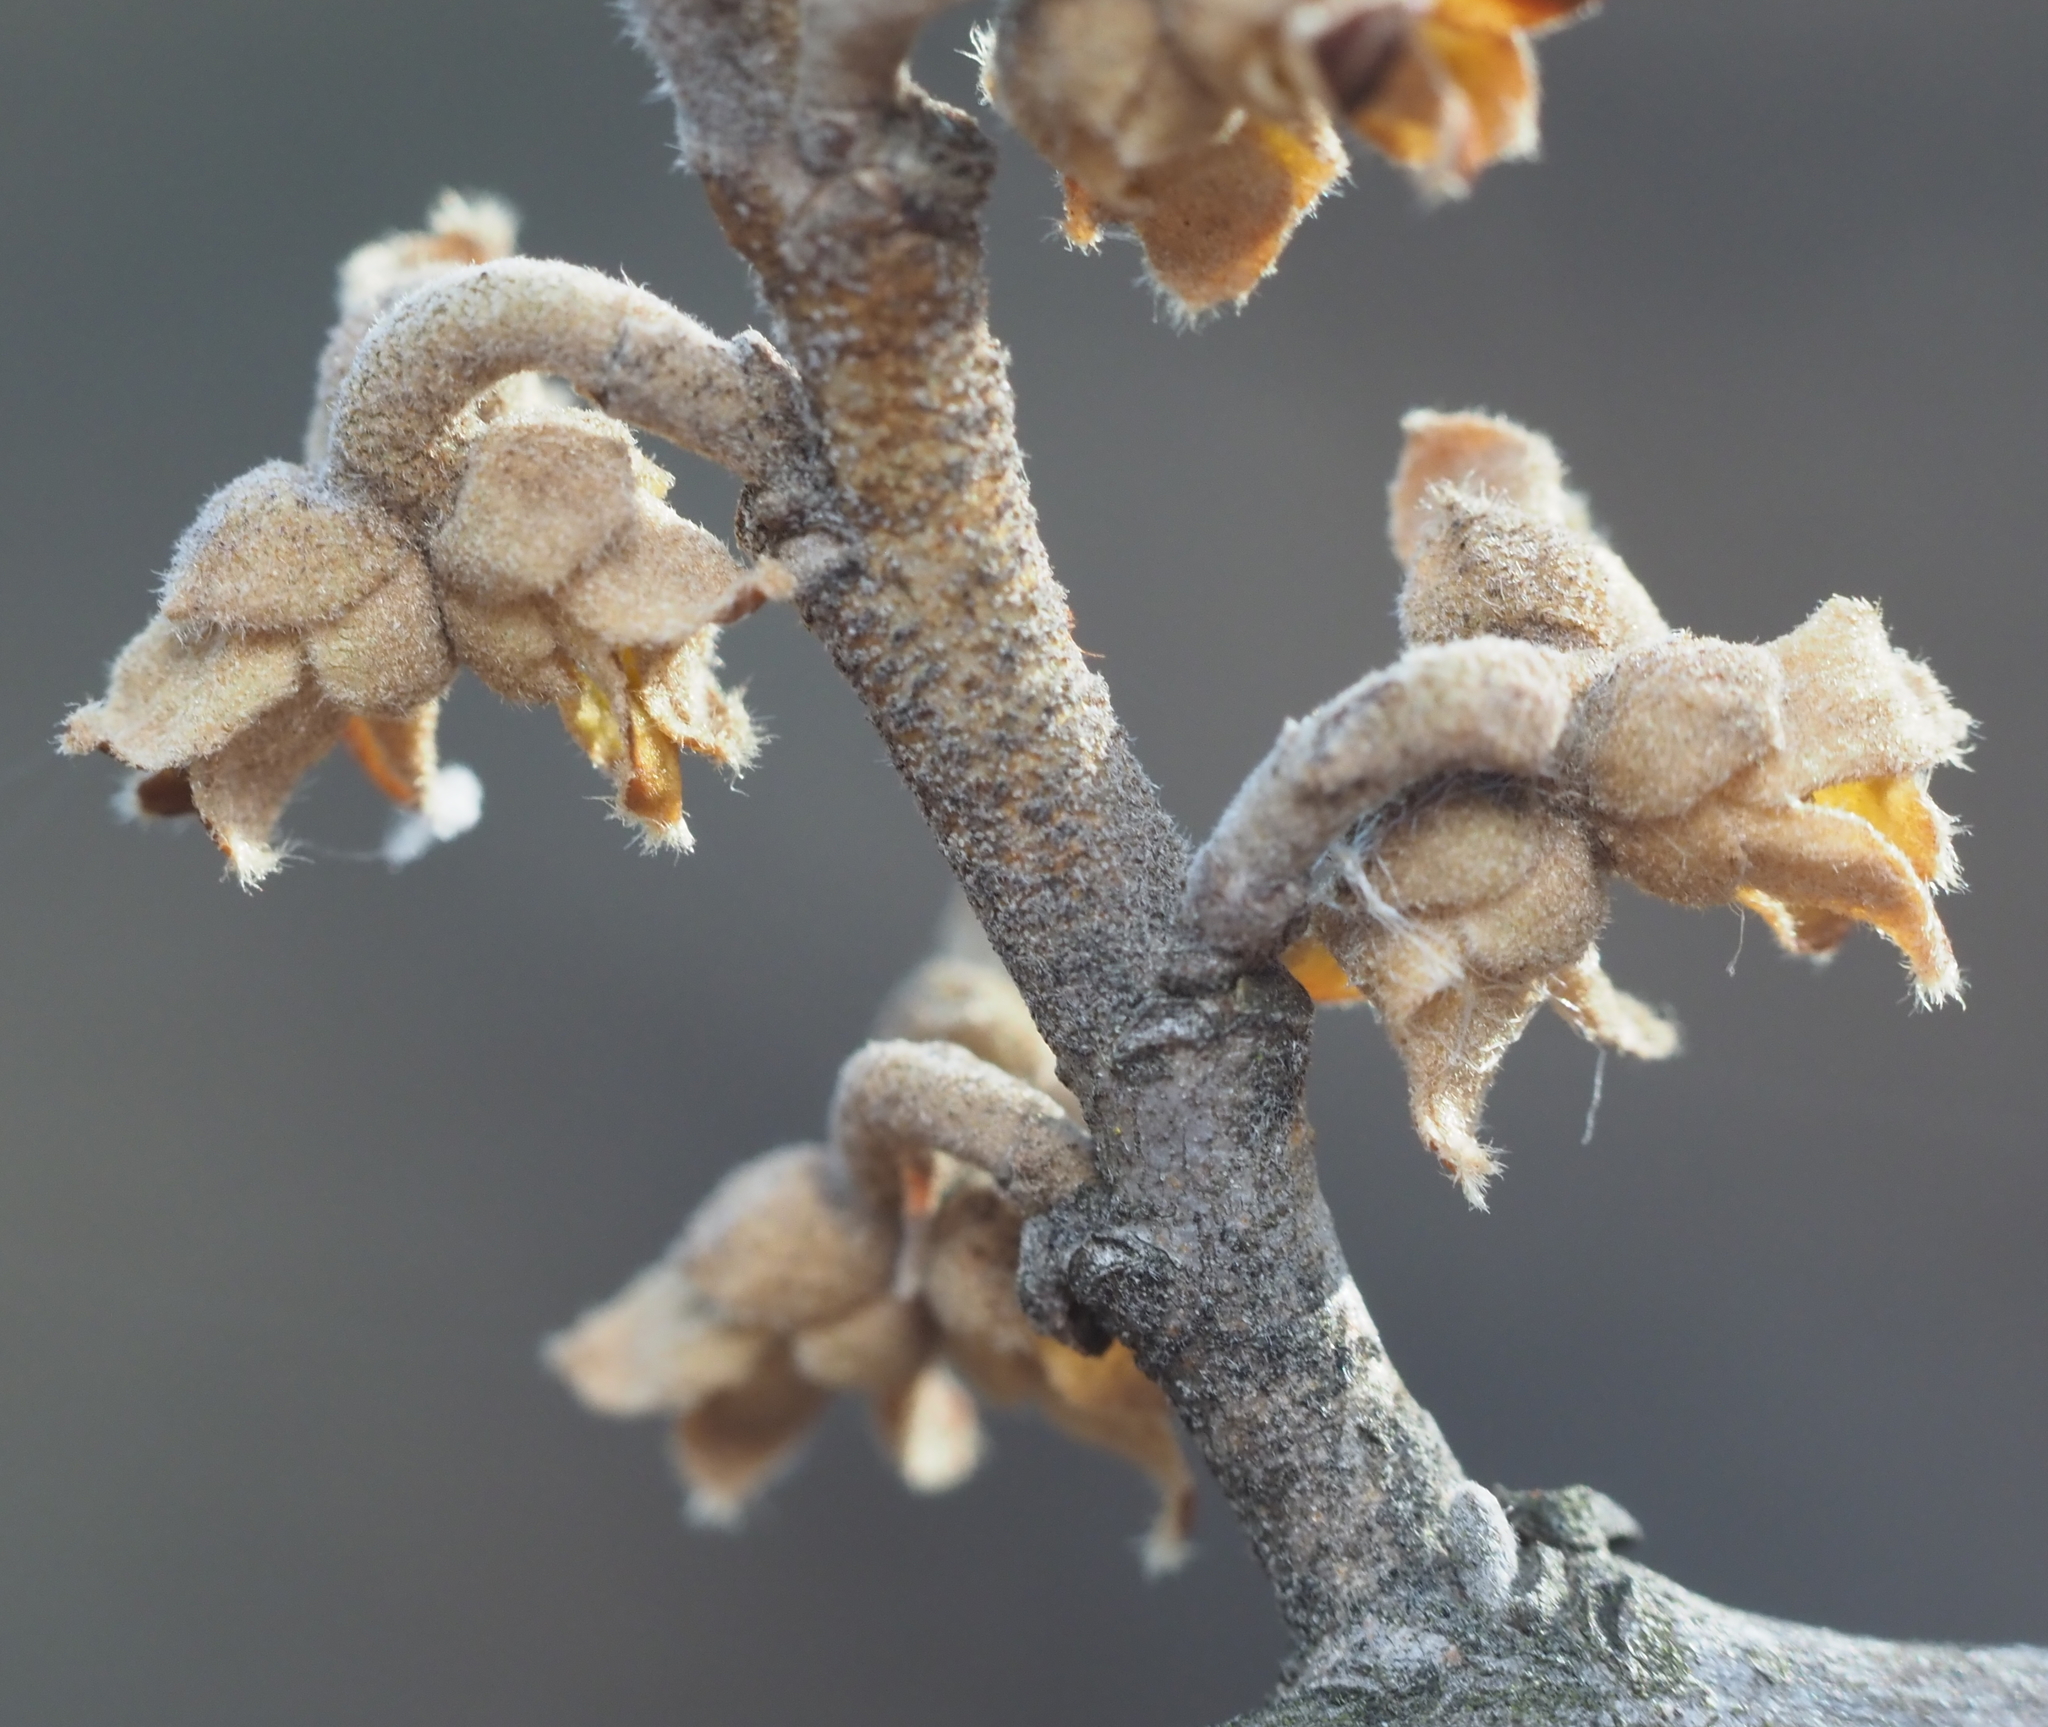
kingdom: Plantae
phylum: Tracheophyta
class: Magnoliopsida
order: Saxifragales
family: Hamamelidaceae
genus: Hamamelis
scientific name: Hamamelis virginiana
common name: Witch-hazel
